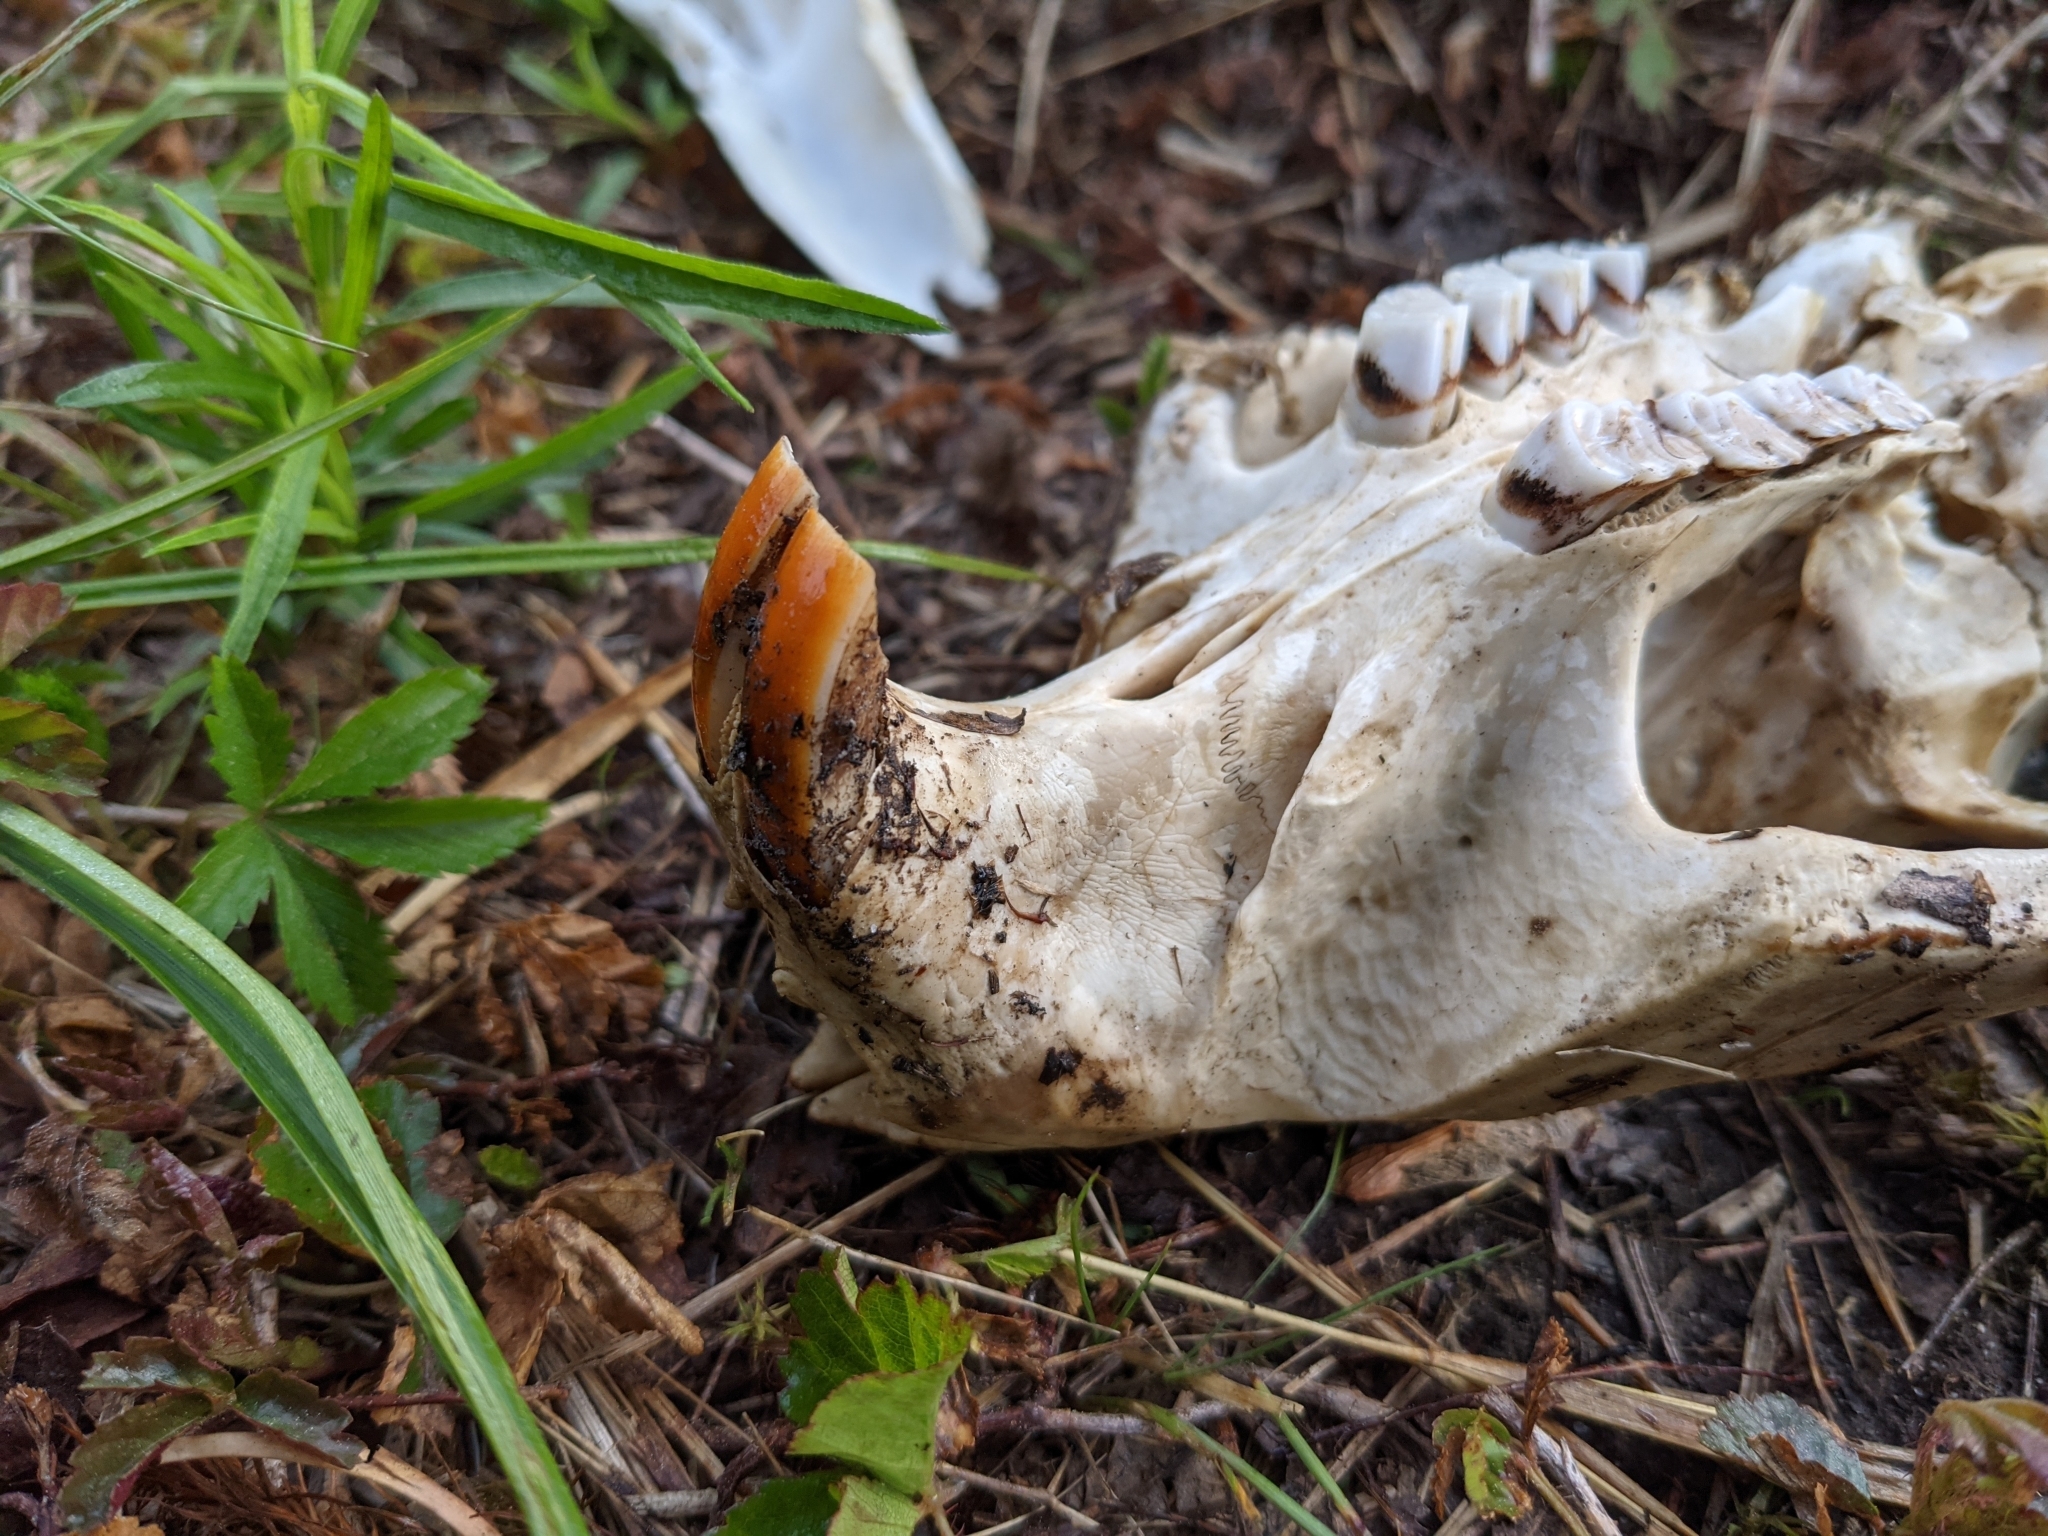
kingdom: Animalia
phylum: Chordata
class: Mammalia
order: Rodentia
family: Castoridae
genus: Castor
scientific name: Castor canadensis
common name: American beaver
